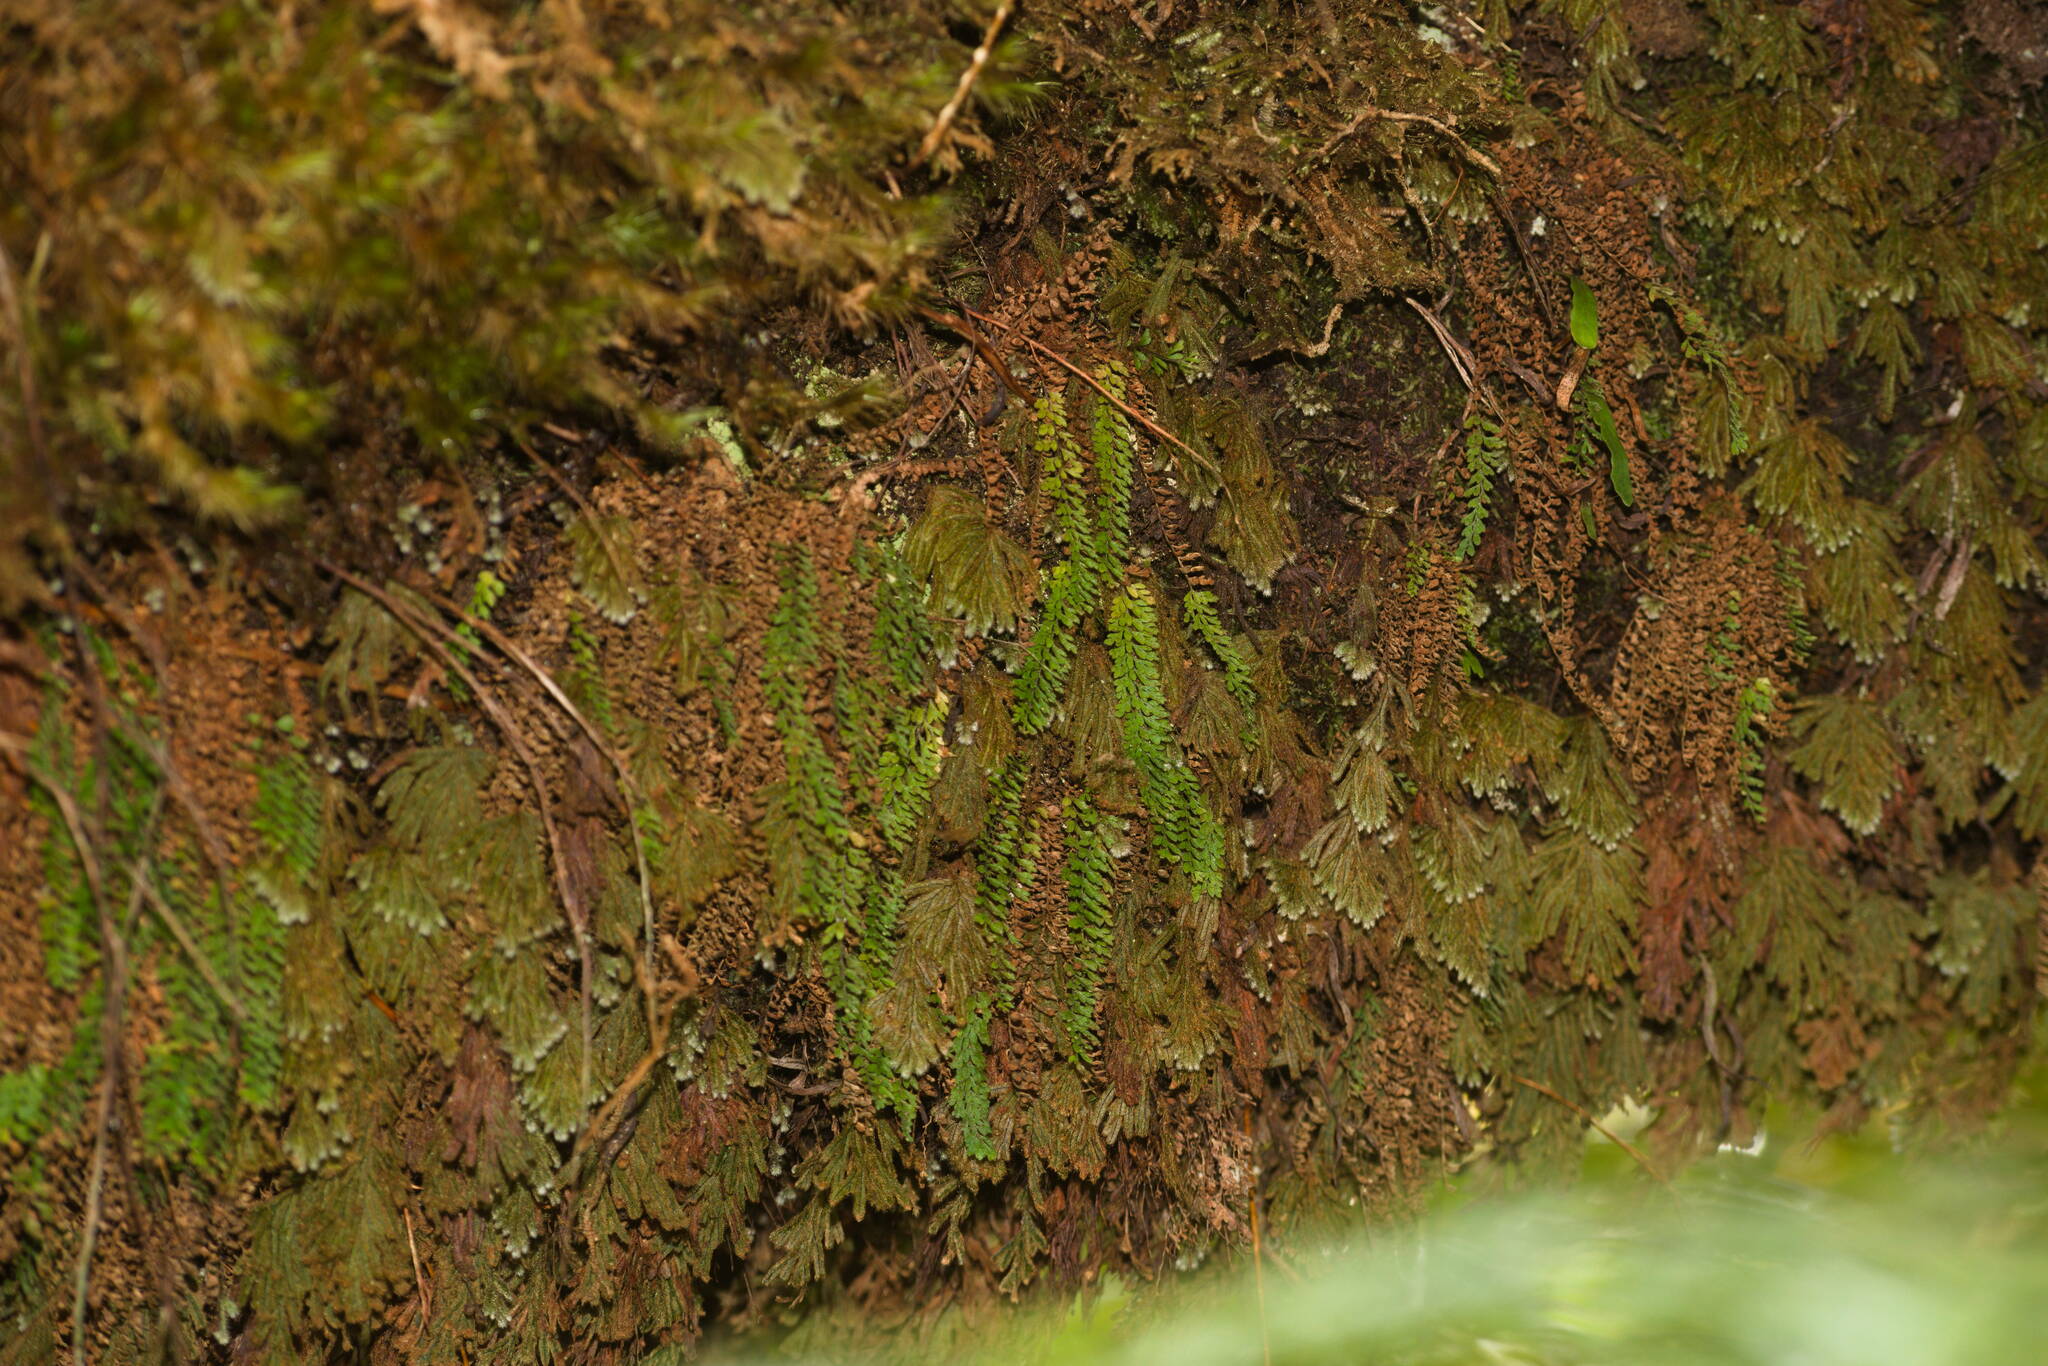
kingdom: Plantae
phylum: Tracheophyta
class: Polypodiopsida
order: Polypodiales
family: Polypodiaceae
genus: Adenophorus
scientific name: Adenophorus hymenophylloides
